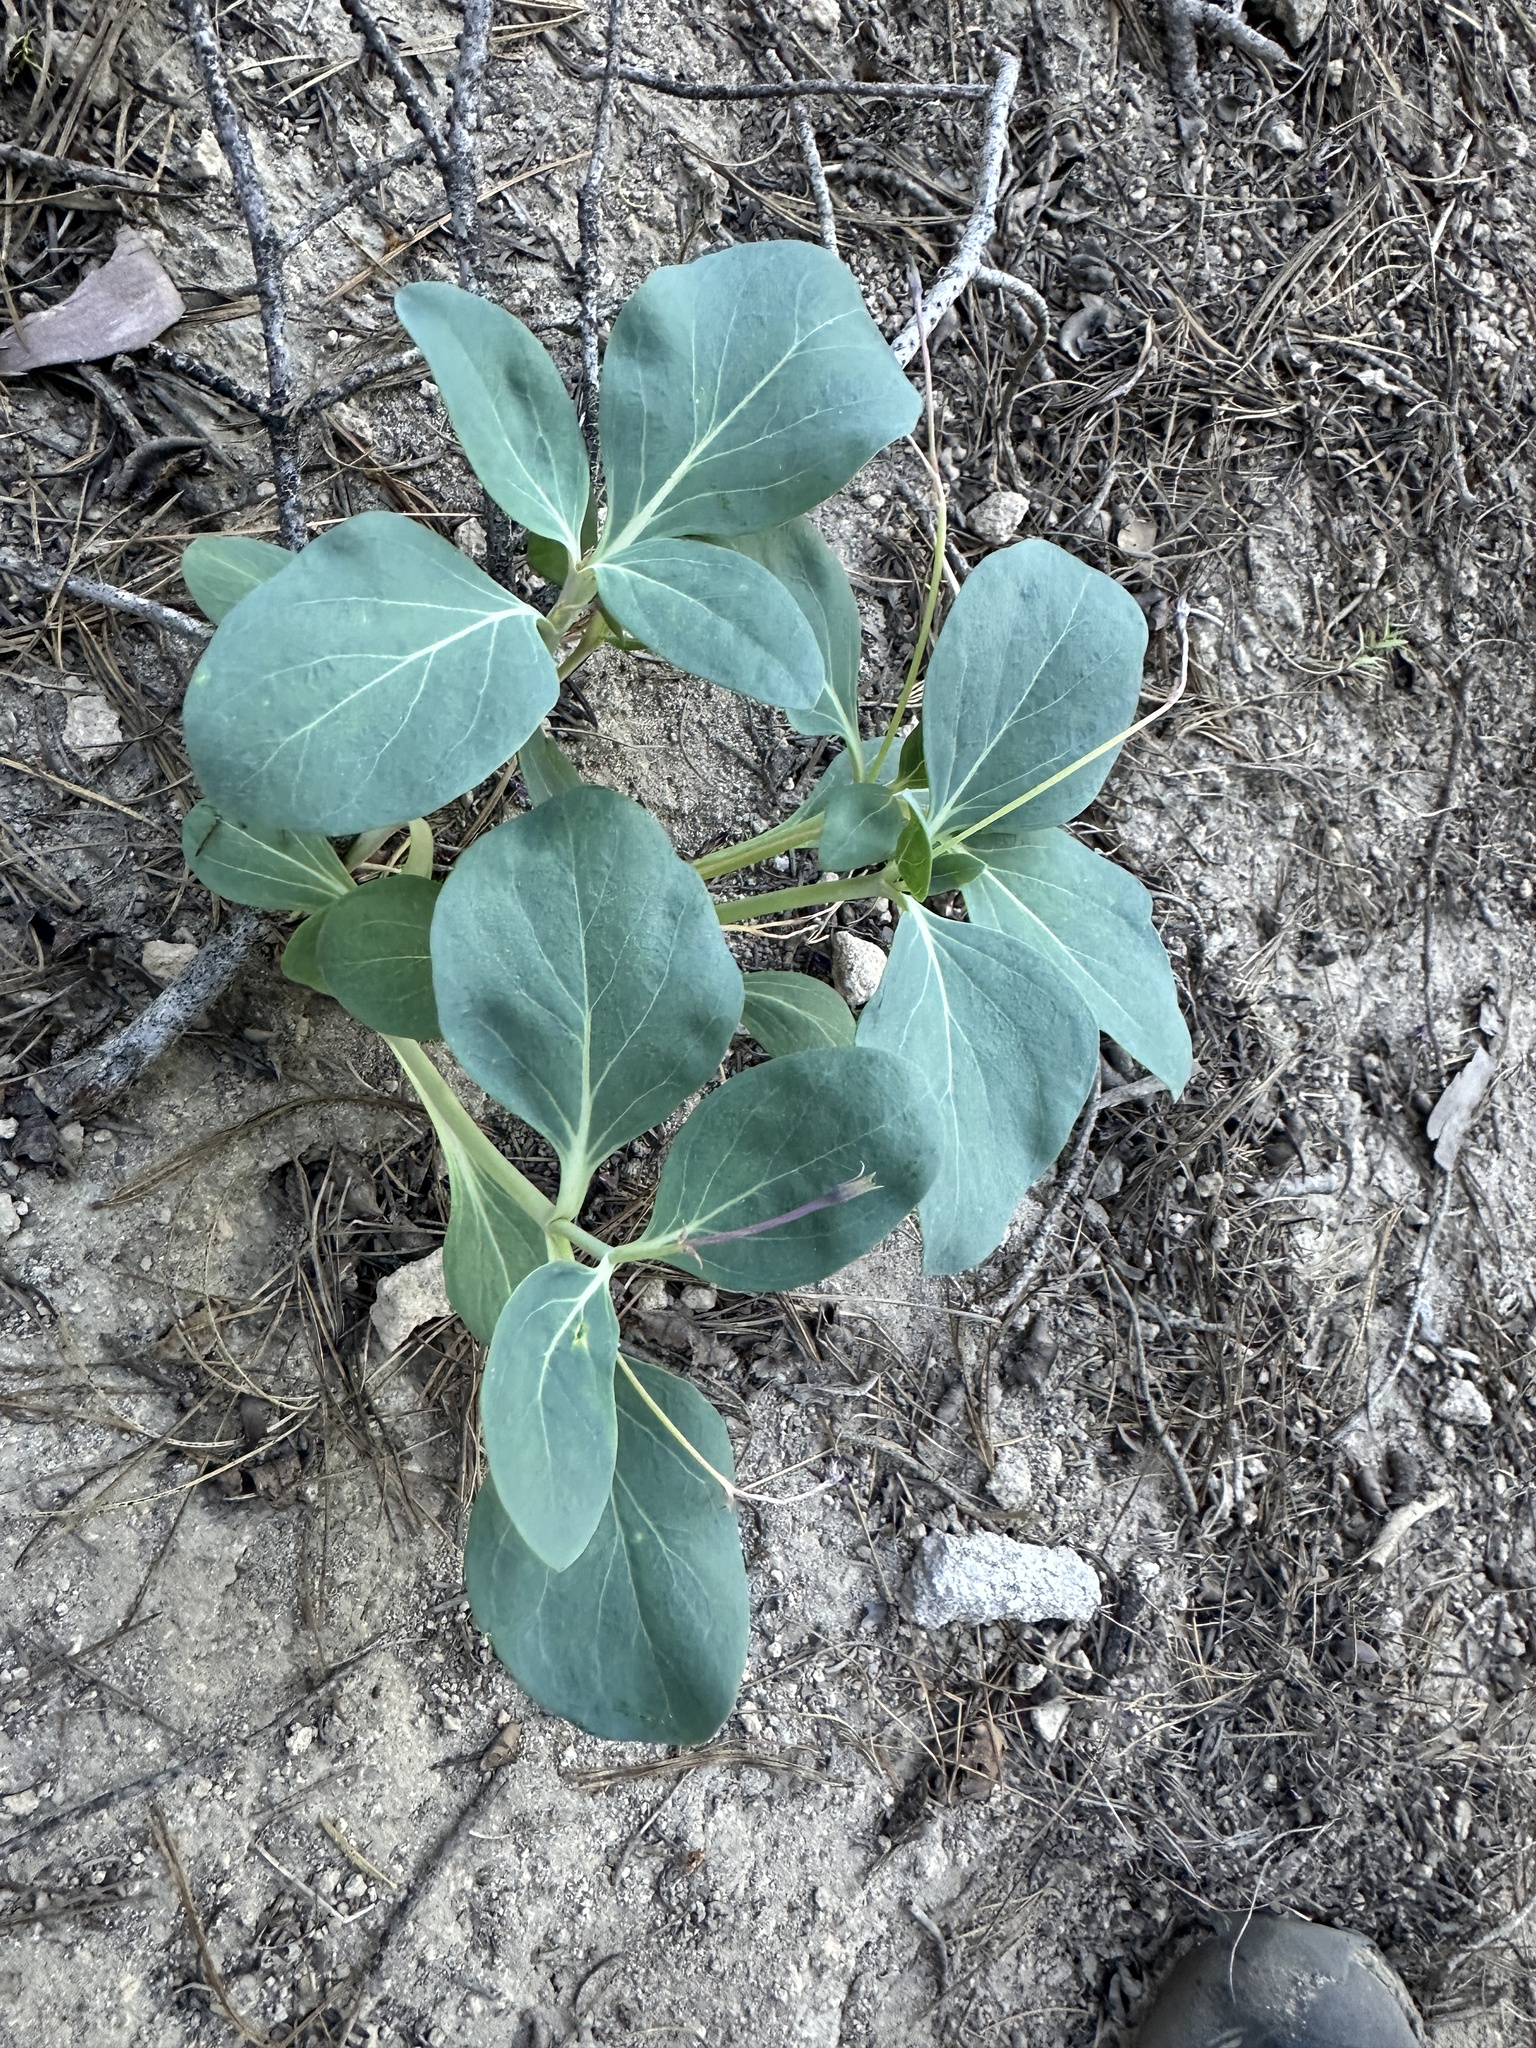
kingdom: Plantae
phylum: Tracheophyta
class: Magnoliopsida
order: Gentianales
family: Apocynaceae
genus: Cycladenia
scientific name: Cycladenia humilis
